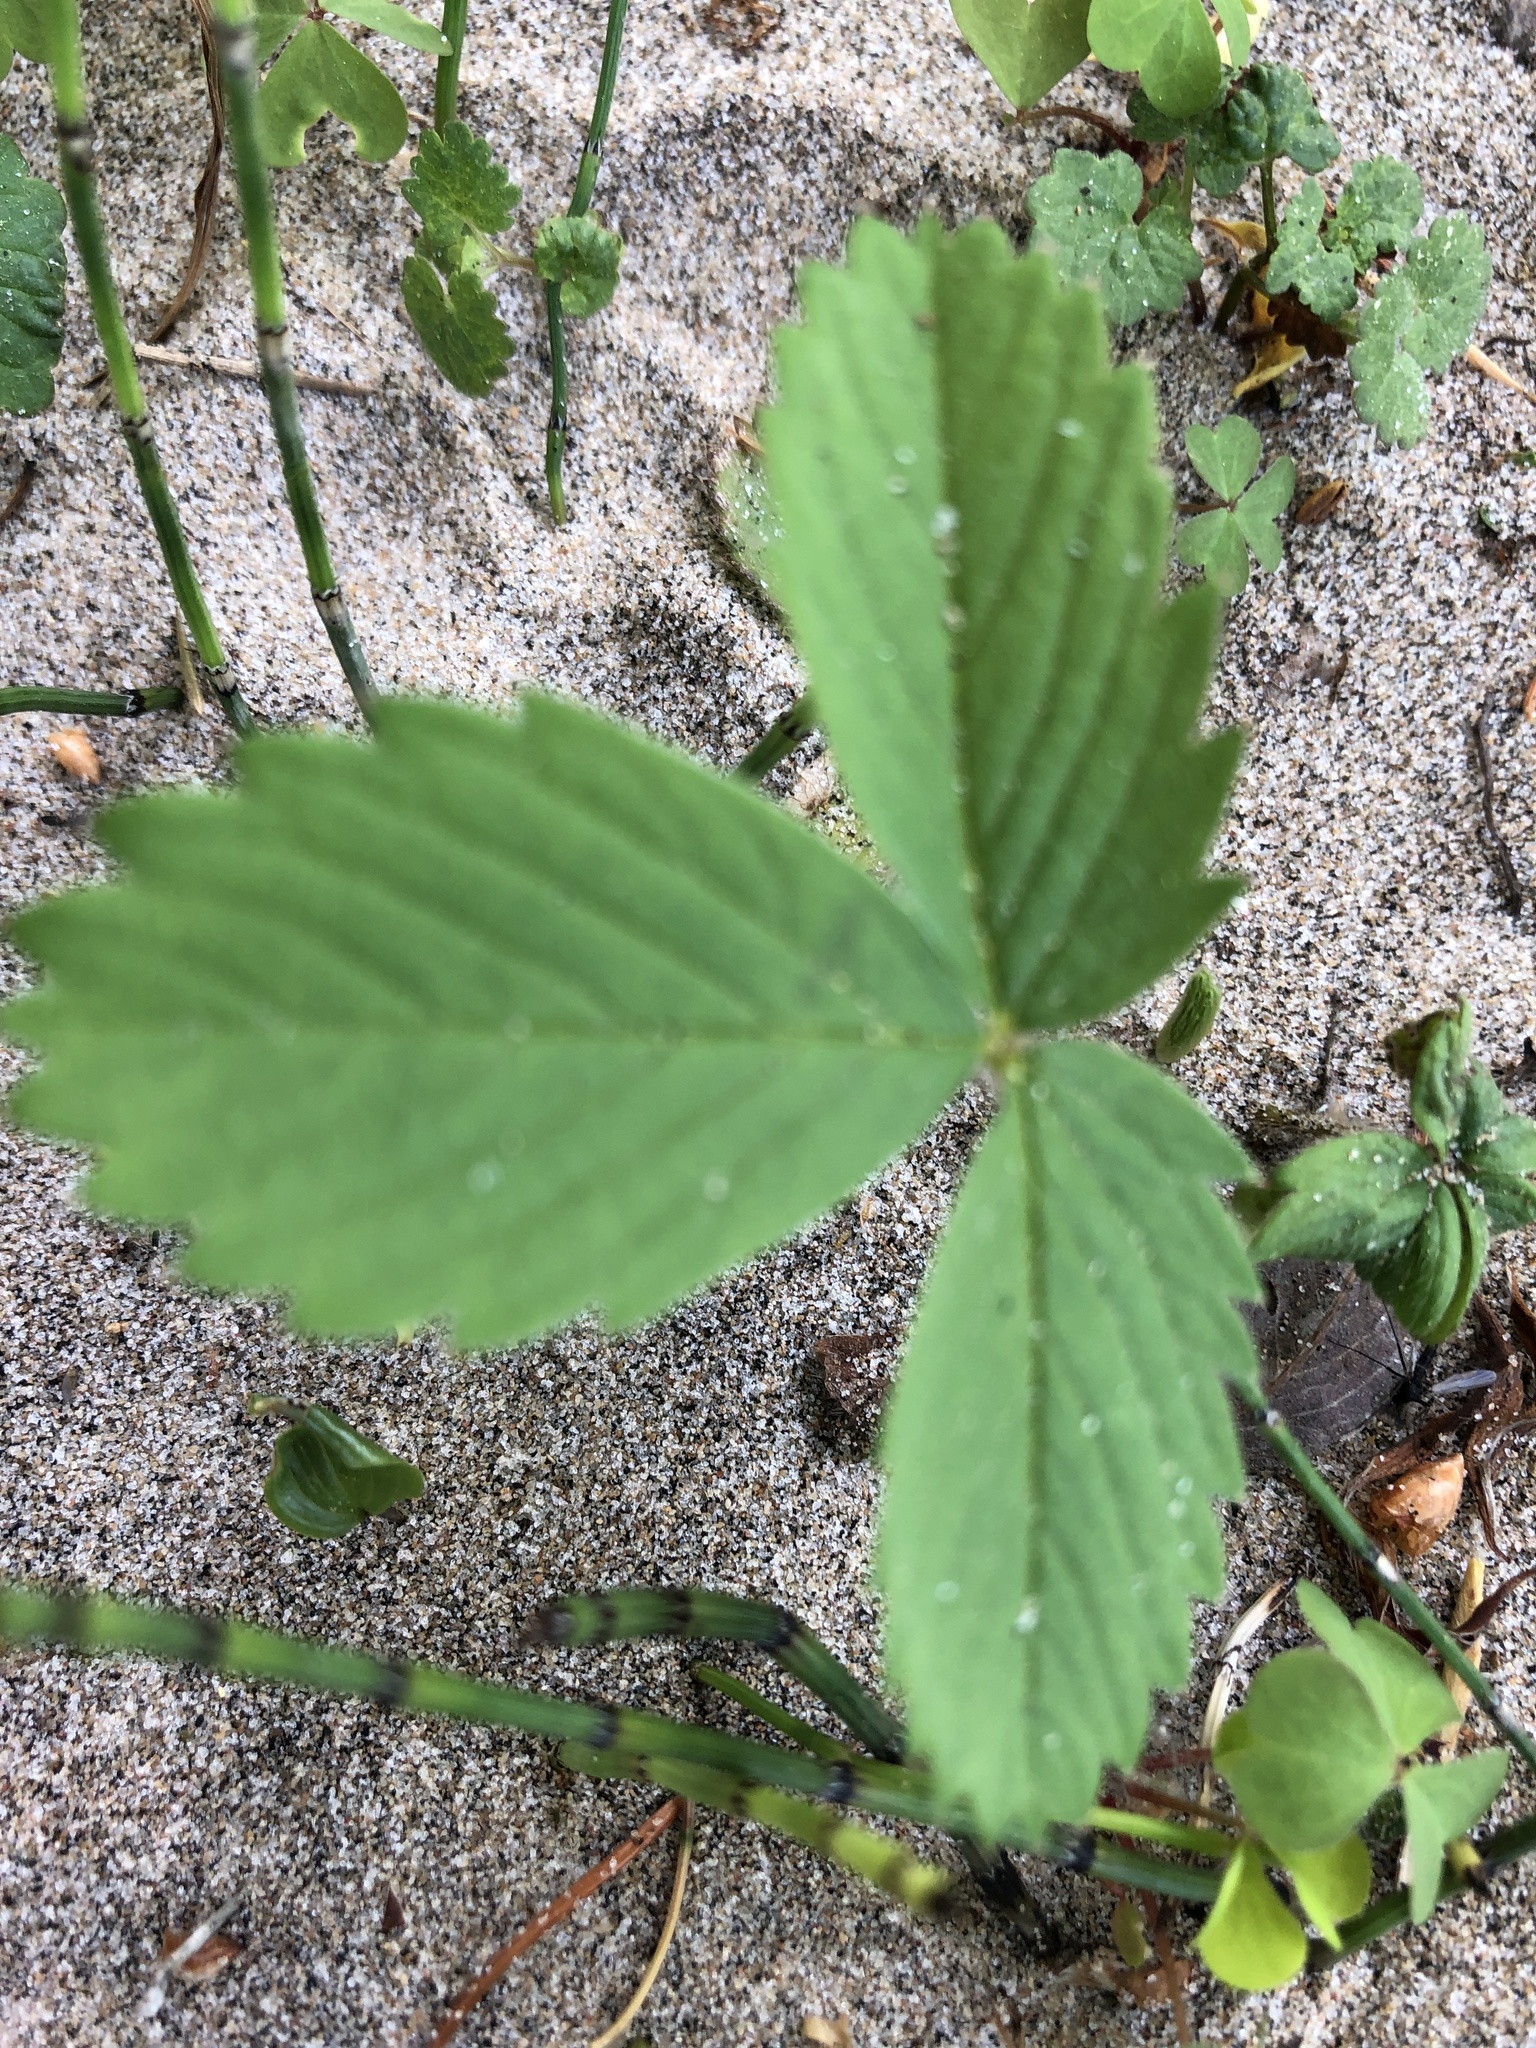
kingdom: Plantae
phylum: Tracheophyta
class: Magnoliopsida
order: Rosales
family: Rosaceae
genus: Fragaria
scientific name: Fragaria virginiana
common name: Thickleaved wild strawberry
